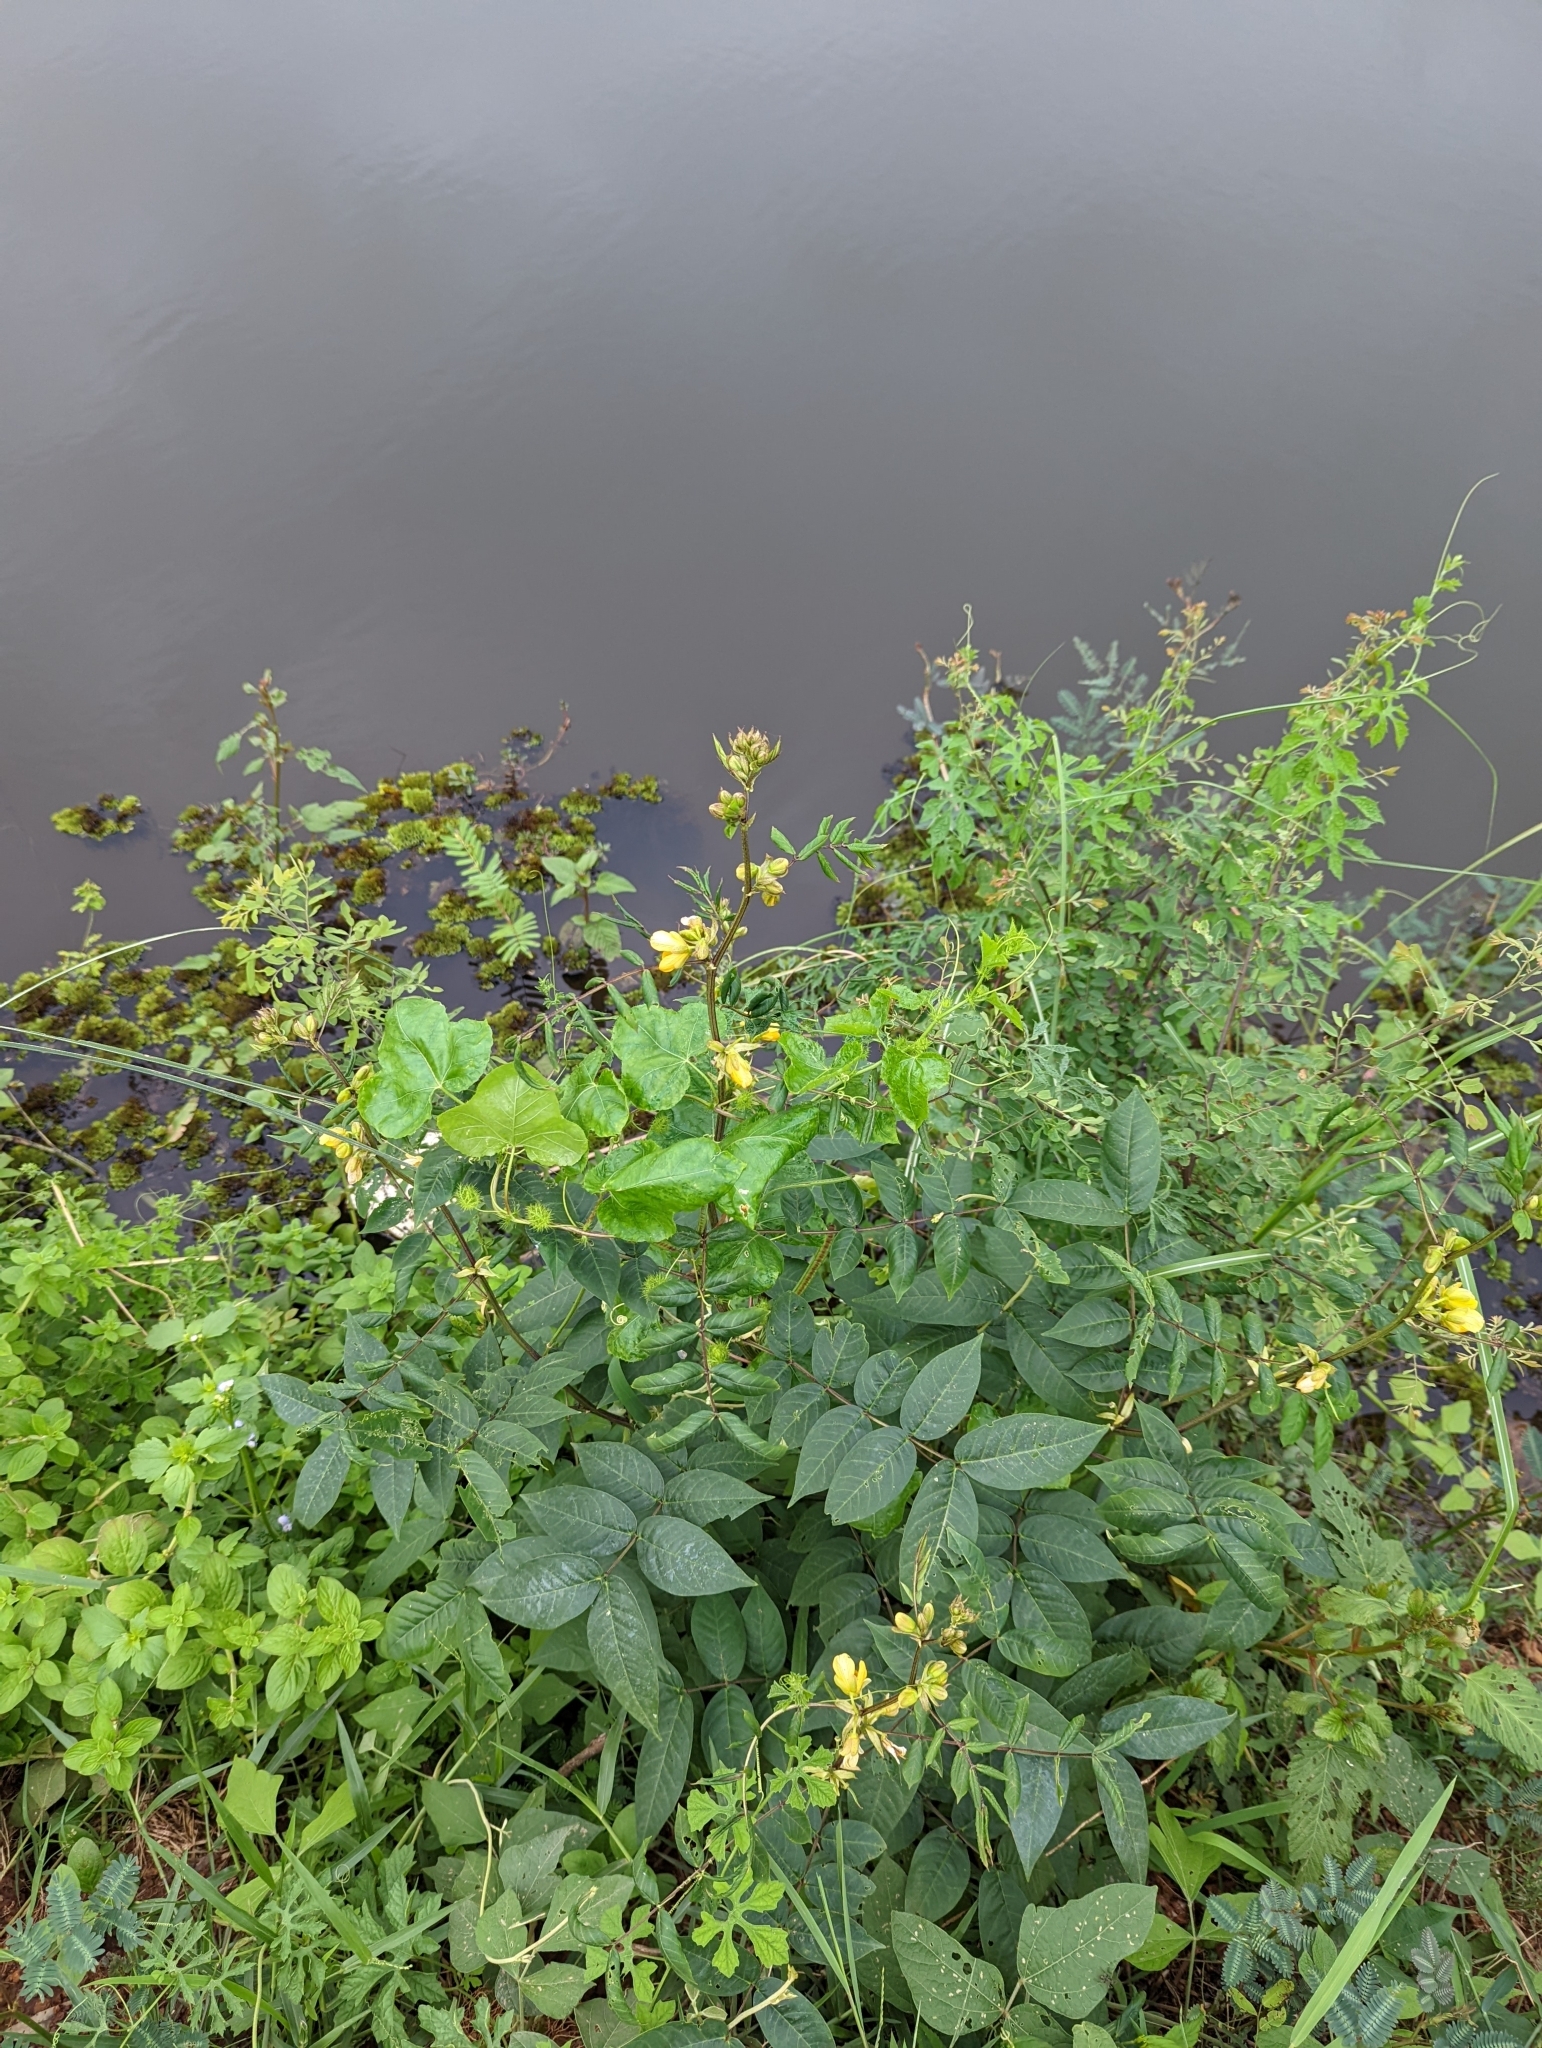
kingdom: Plantae
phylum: Tracheophyta
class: Magnoliopsida
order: Fabales
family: Fabaceae
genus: Senna
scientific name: Senna occidentalis
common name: Septicweed
